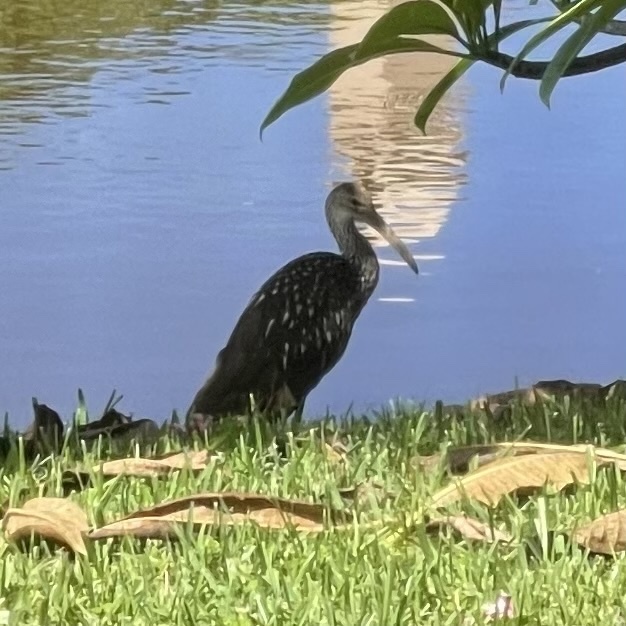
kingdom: Animalia
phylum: Chordata
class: Aves
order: Gruiformes
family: Aramidae
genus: Aramus
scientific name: Aramus guarauna
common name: Limpkin
